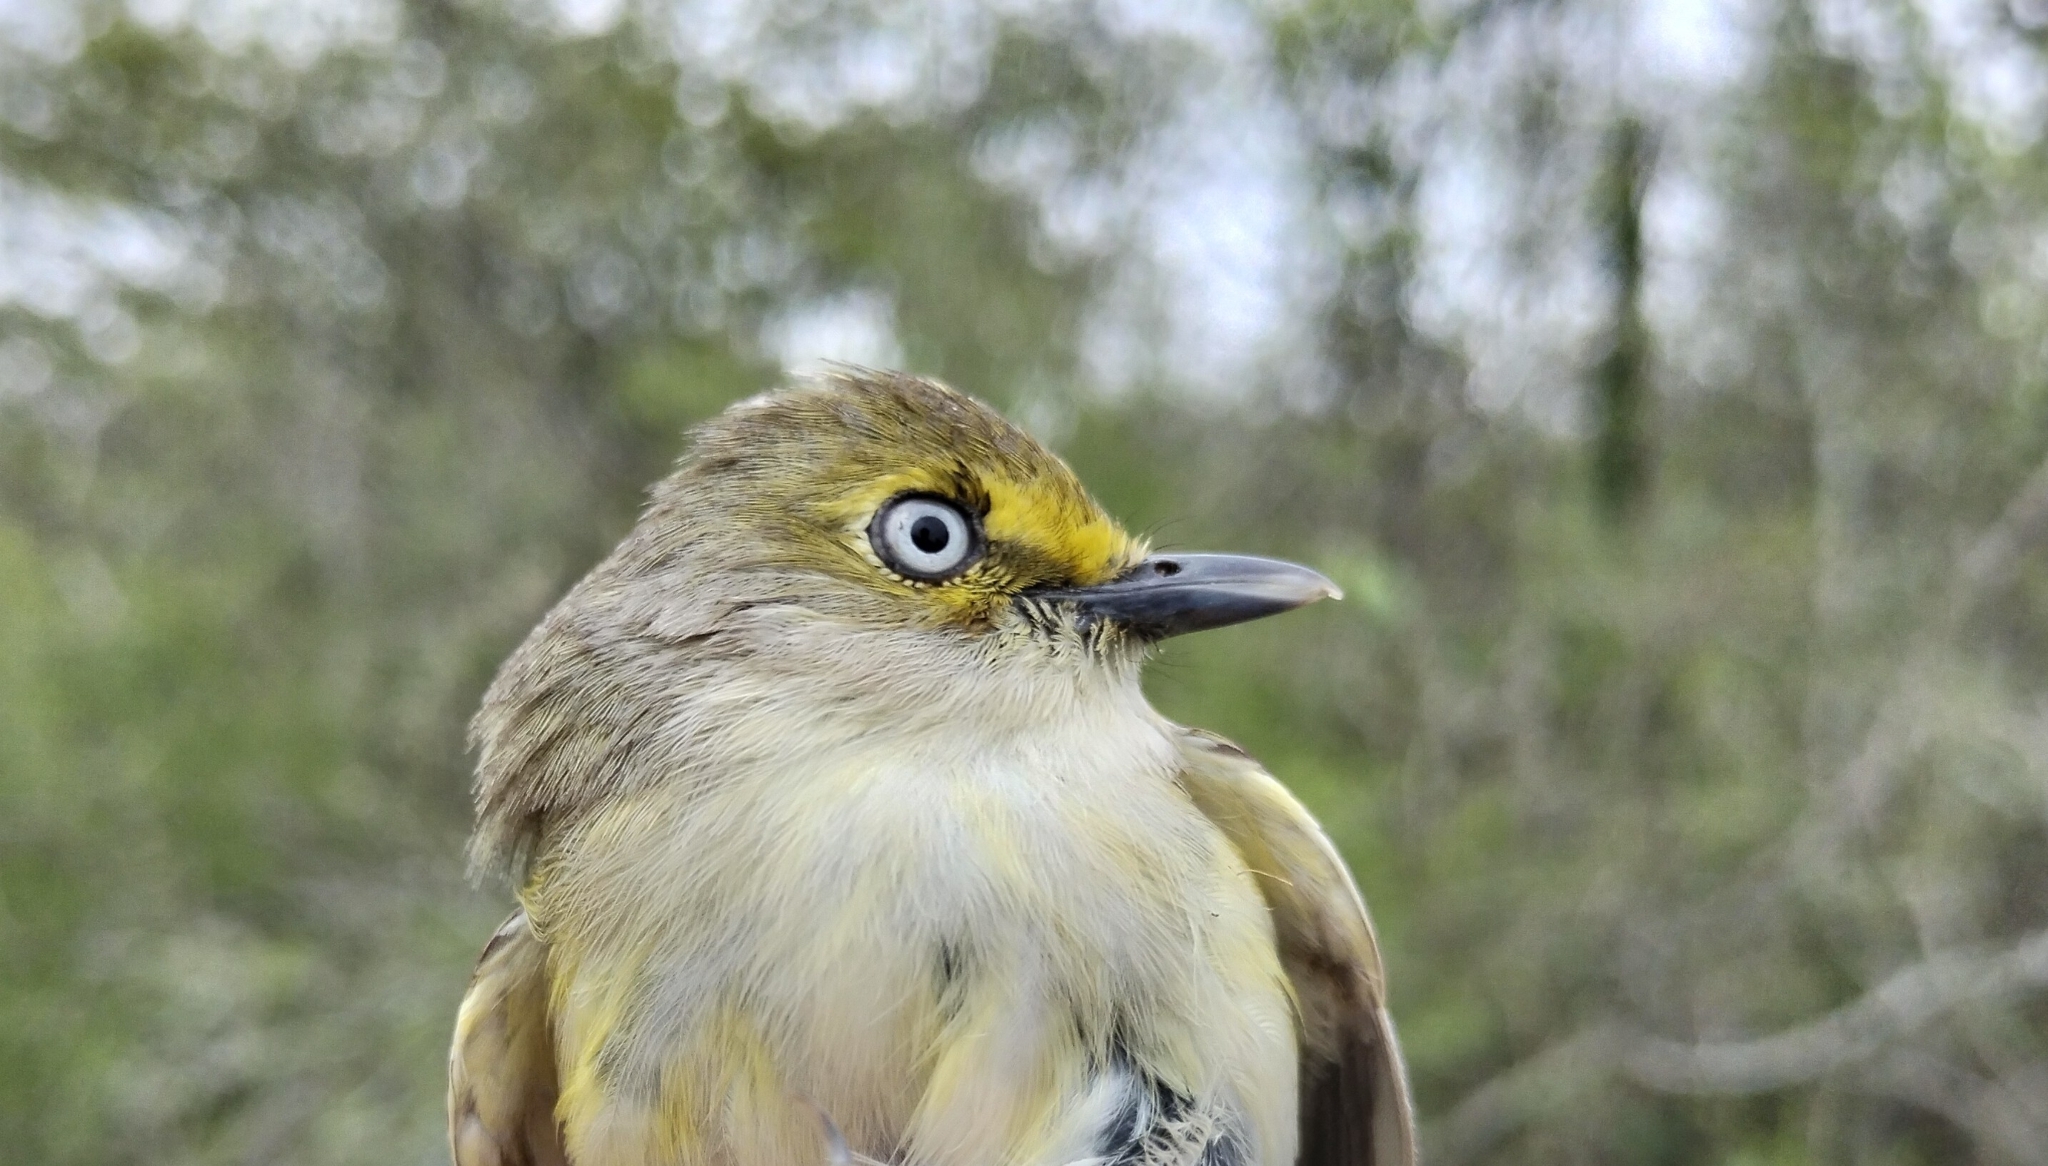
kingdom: Animalia
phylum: Chordata
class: Aves
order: Passeriformes
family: Vireonidae
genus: Vireo
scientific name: Vireo griseus
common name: White-eyed vireo
